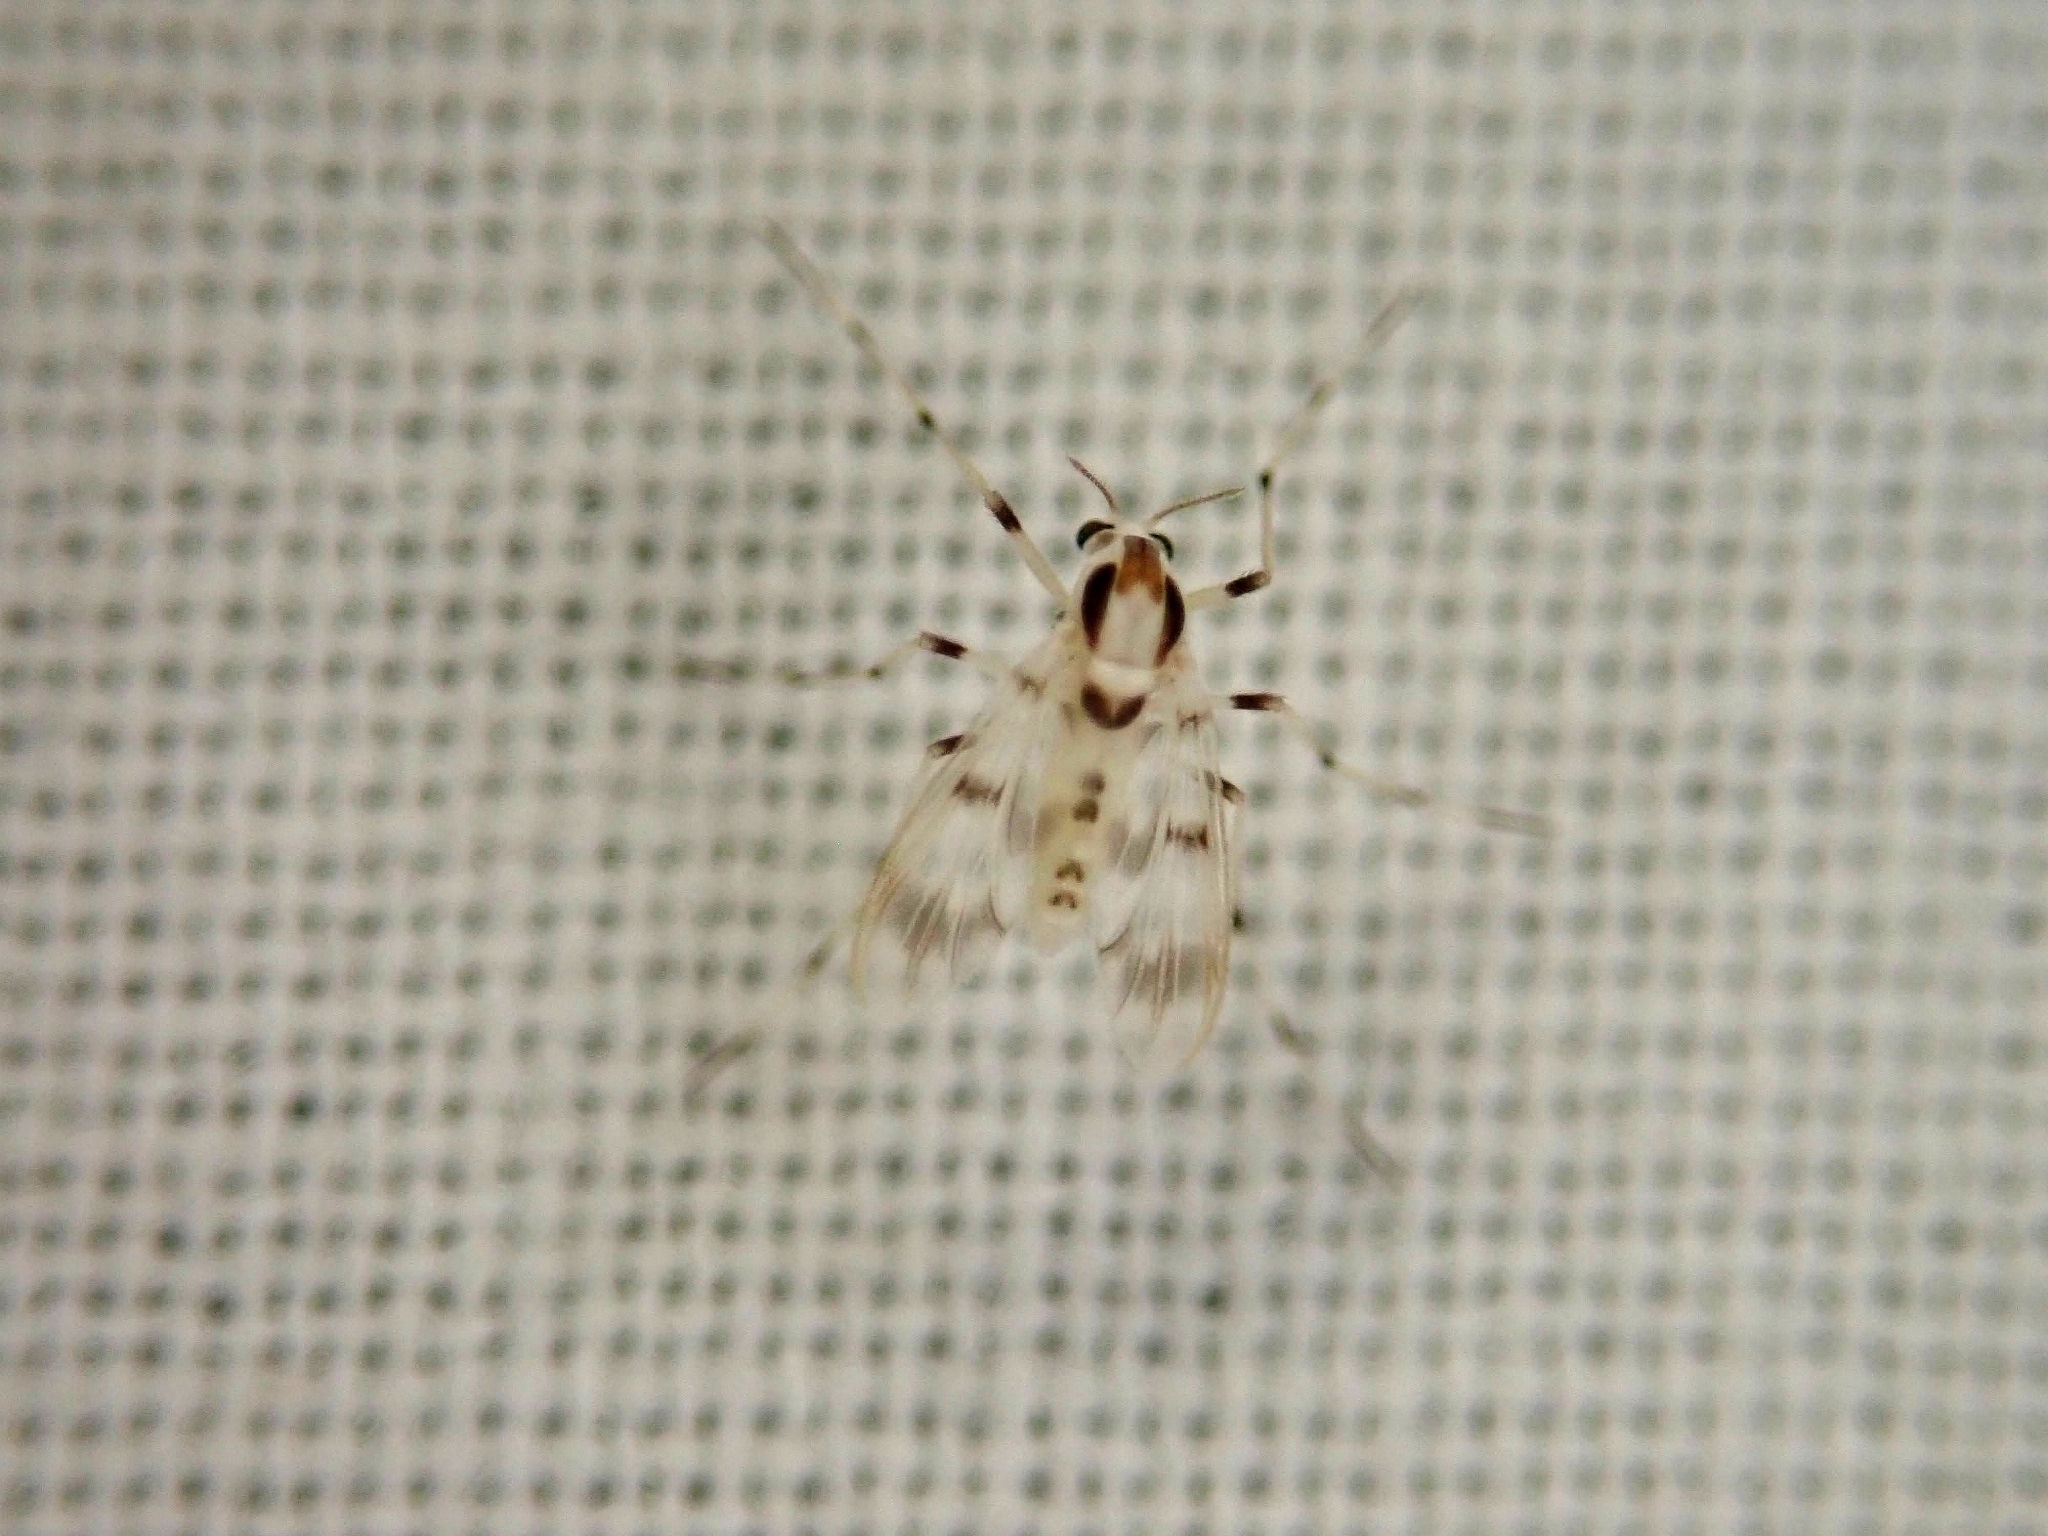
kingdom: Animalia
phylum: Arthropoda
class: Insecta
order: Diptera
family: Chironomidae
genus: Djalmabatista
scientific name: Djalmabatista pulchra
